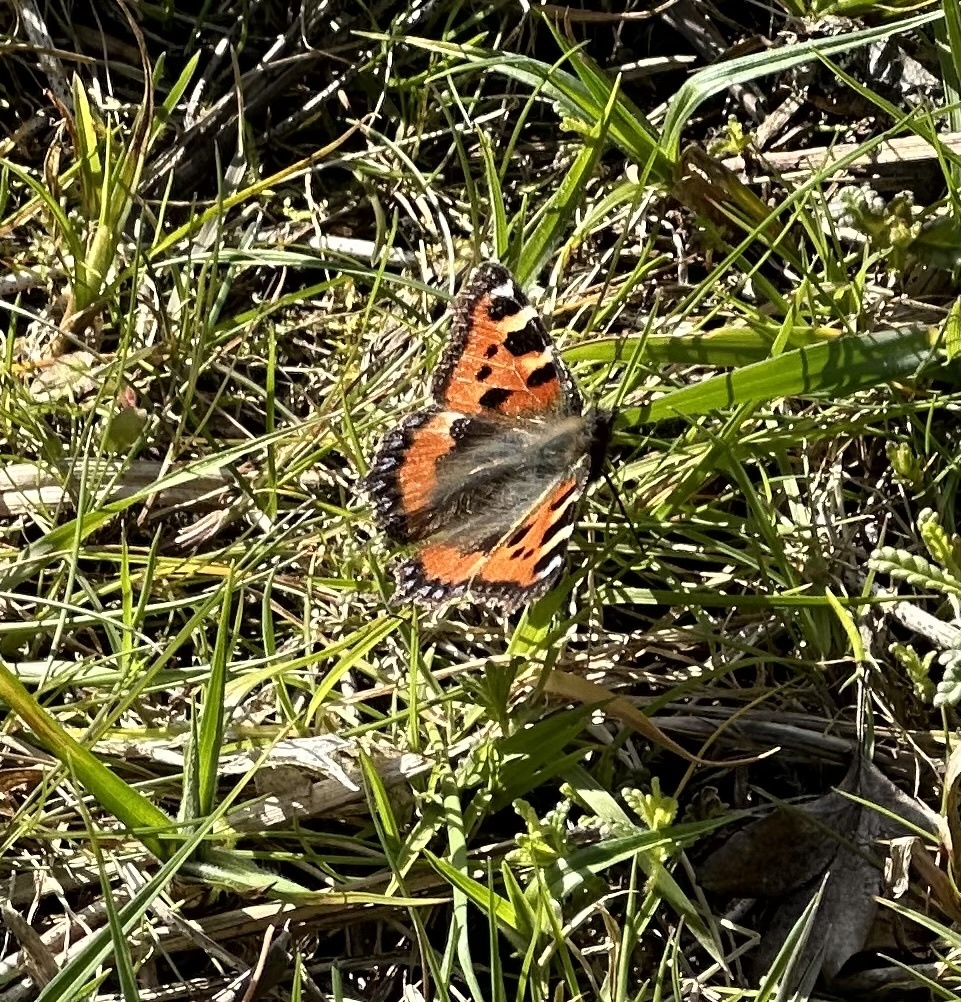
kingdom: Animalia
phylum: Arthropoda
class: Insecta
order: Lepidoptera
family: Nymphalidae
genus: Aglais
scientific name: Aglais urticae
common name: Small tortoiseshell
